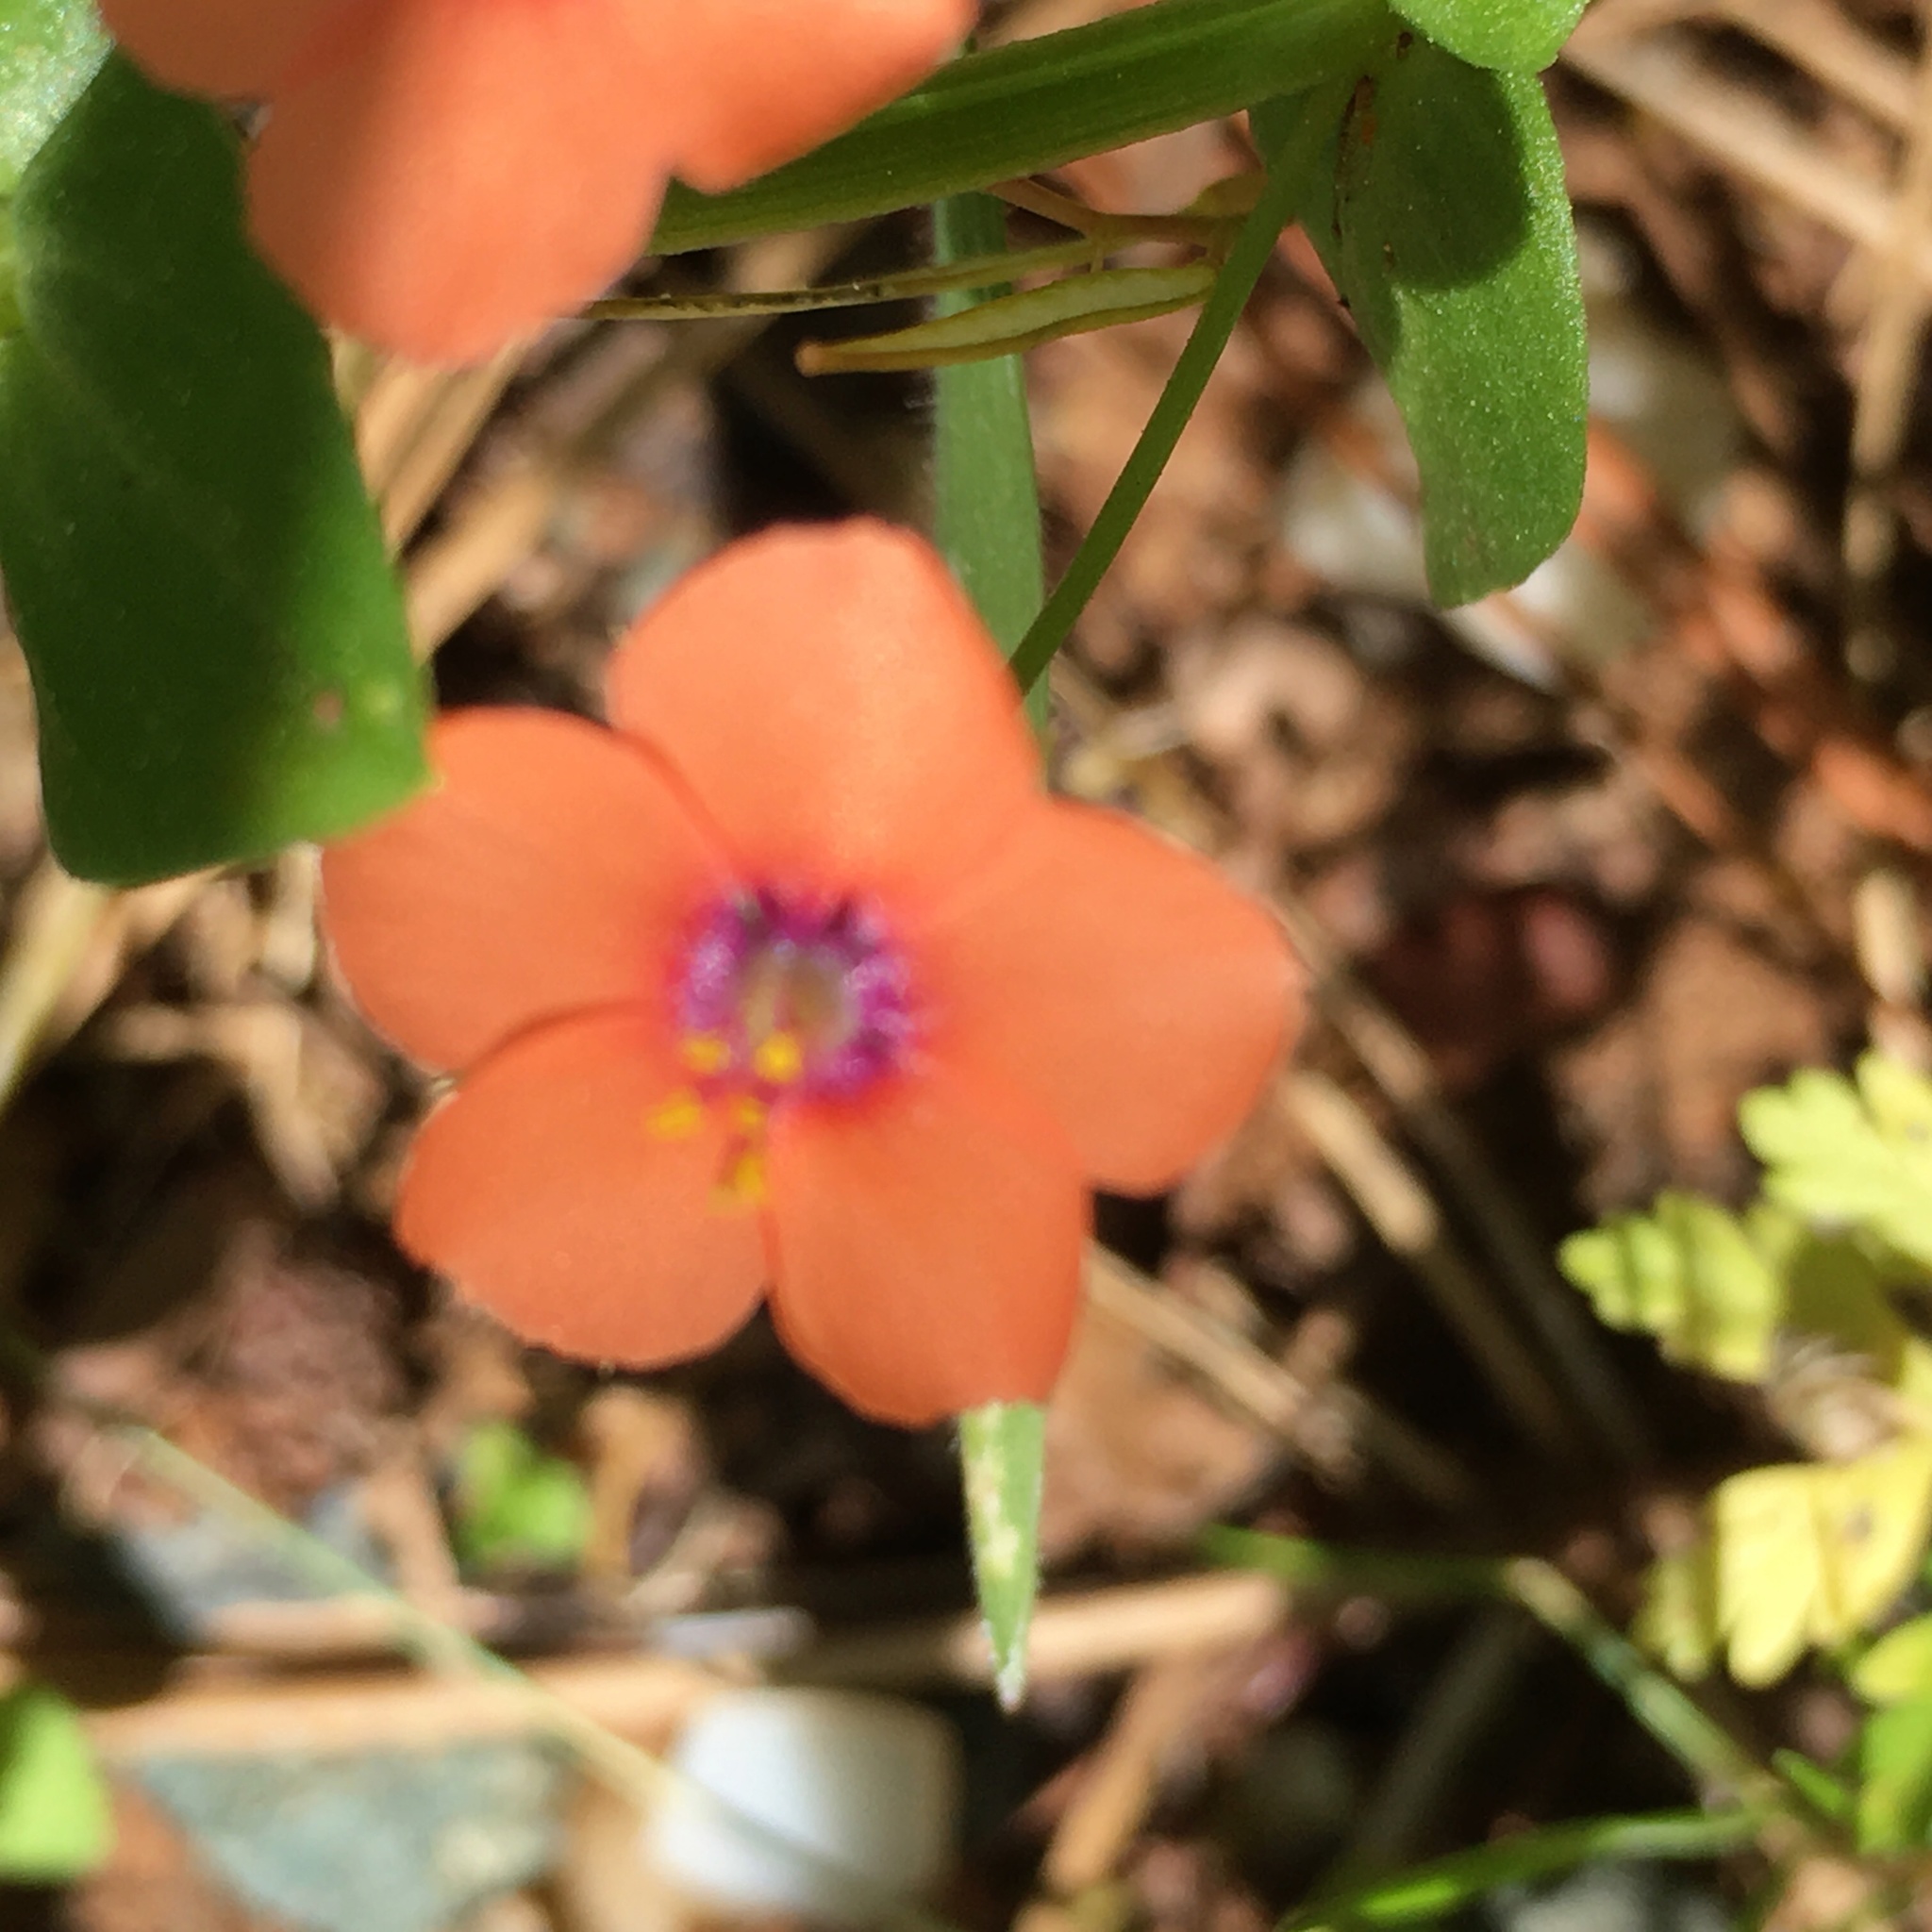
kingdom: Plantae
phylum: Tracheophyta
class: Magnoliopsida
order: Ericales
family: Primulaceae
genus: Lysimachia
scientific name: Lysimachia arvensis
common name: Scarlet pimpernel
